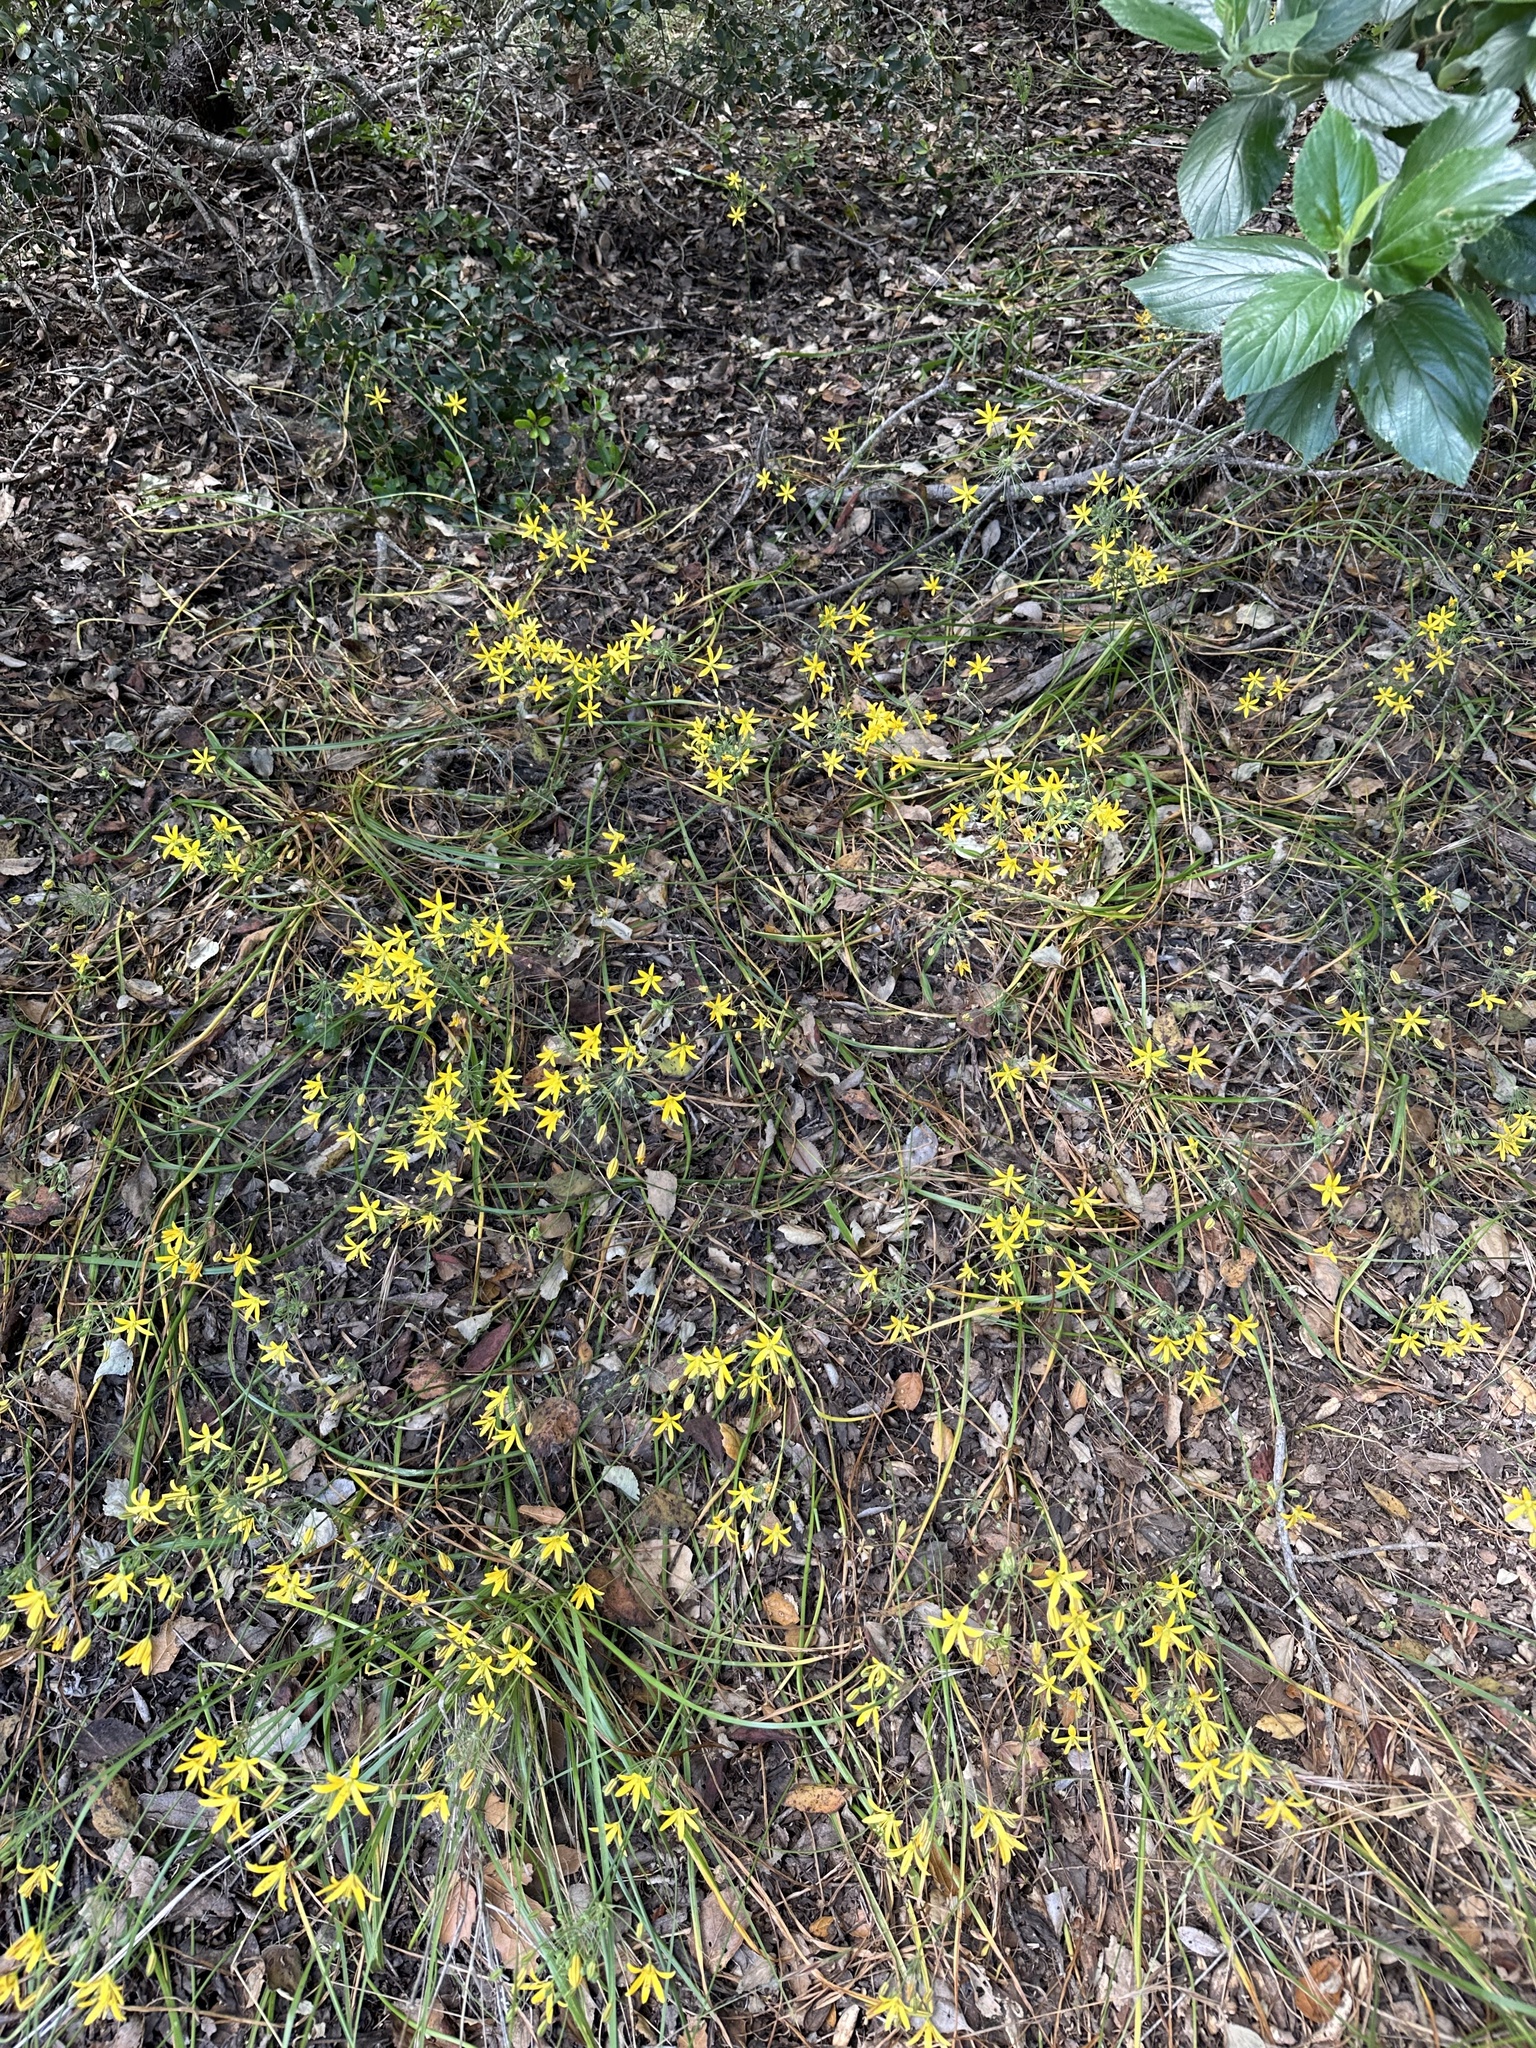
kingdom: Plantae
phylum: Tracheophyta
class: Liliopsida
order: Asparagales
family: Asparagaceae
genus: Bloomeria
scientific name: Bloomeria crocea
